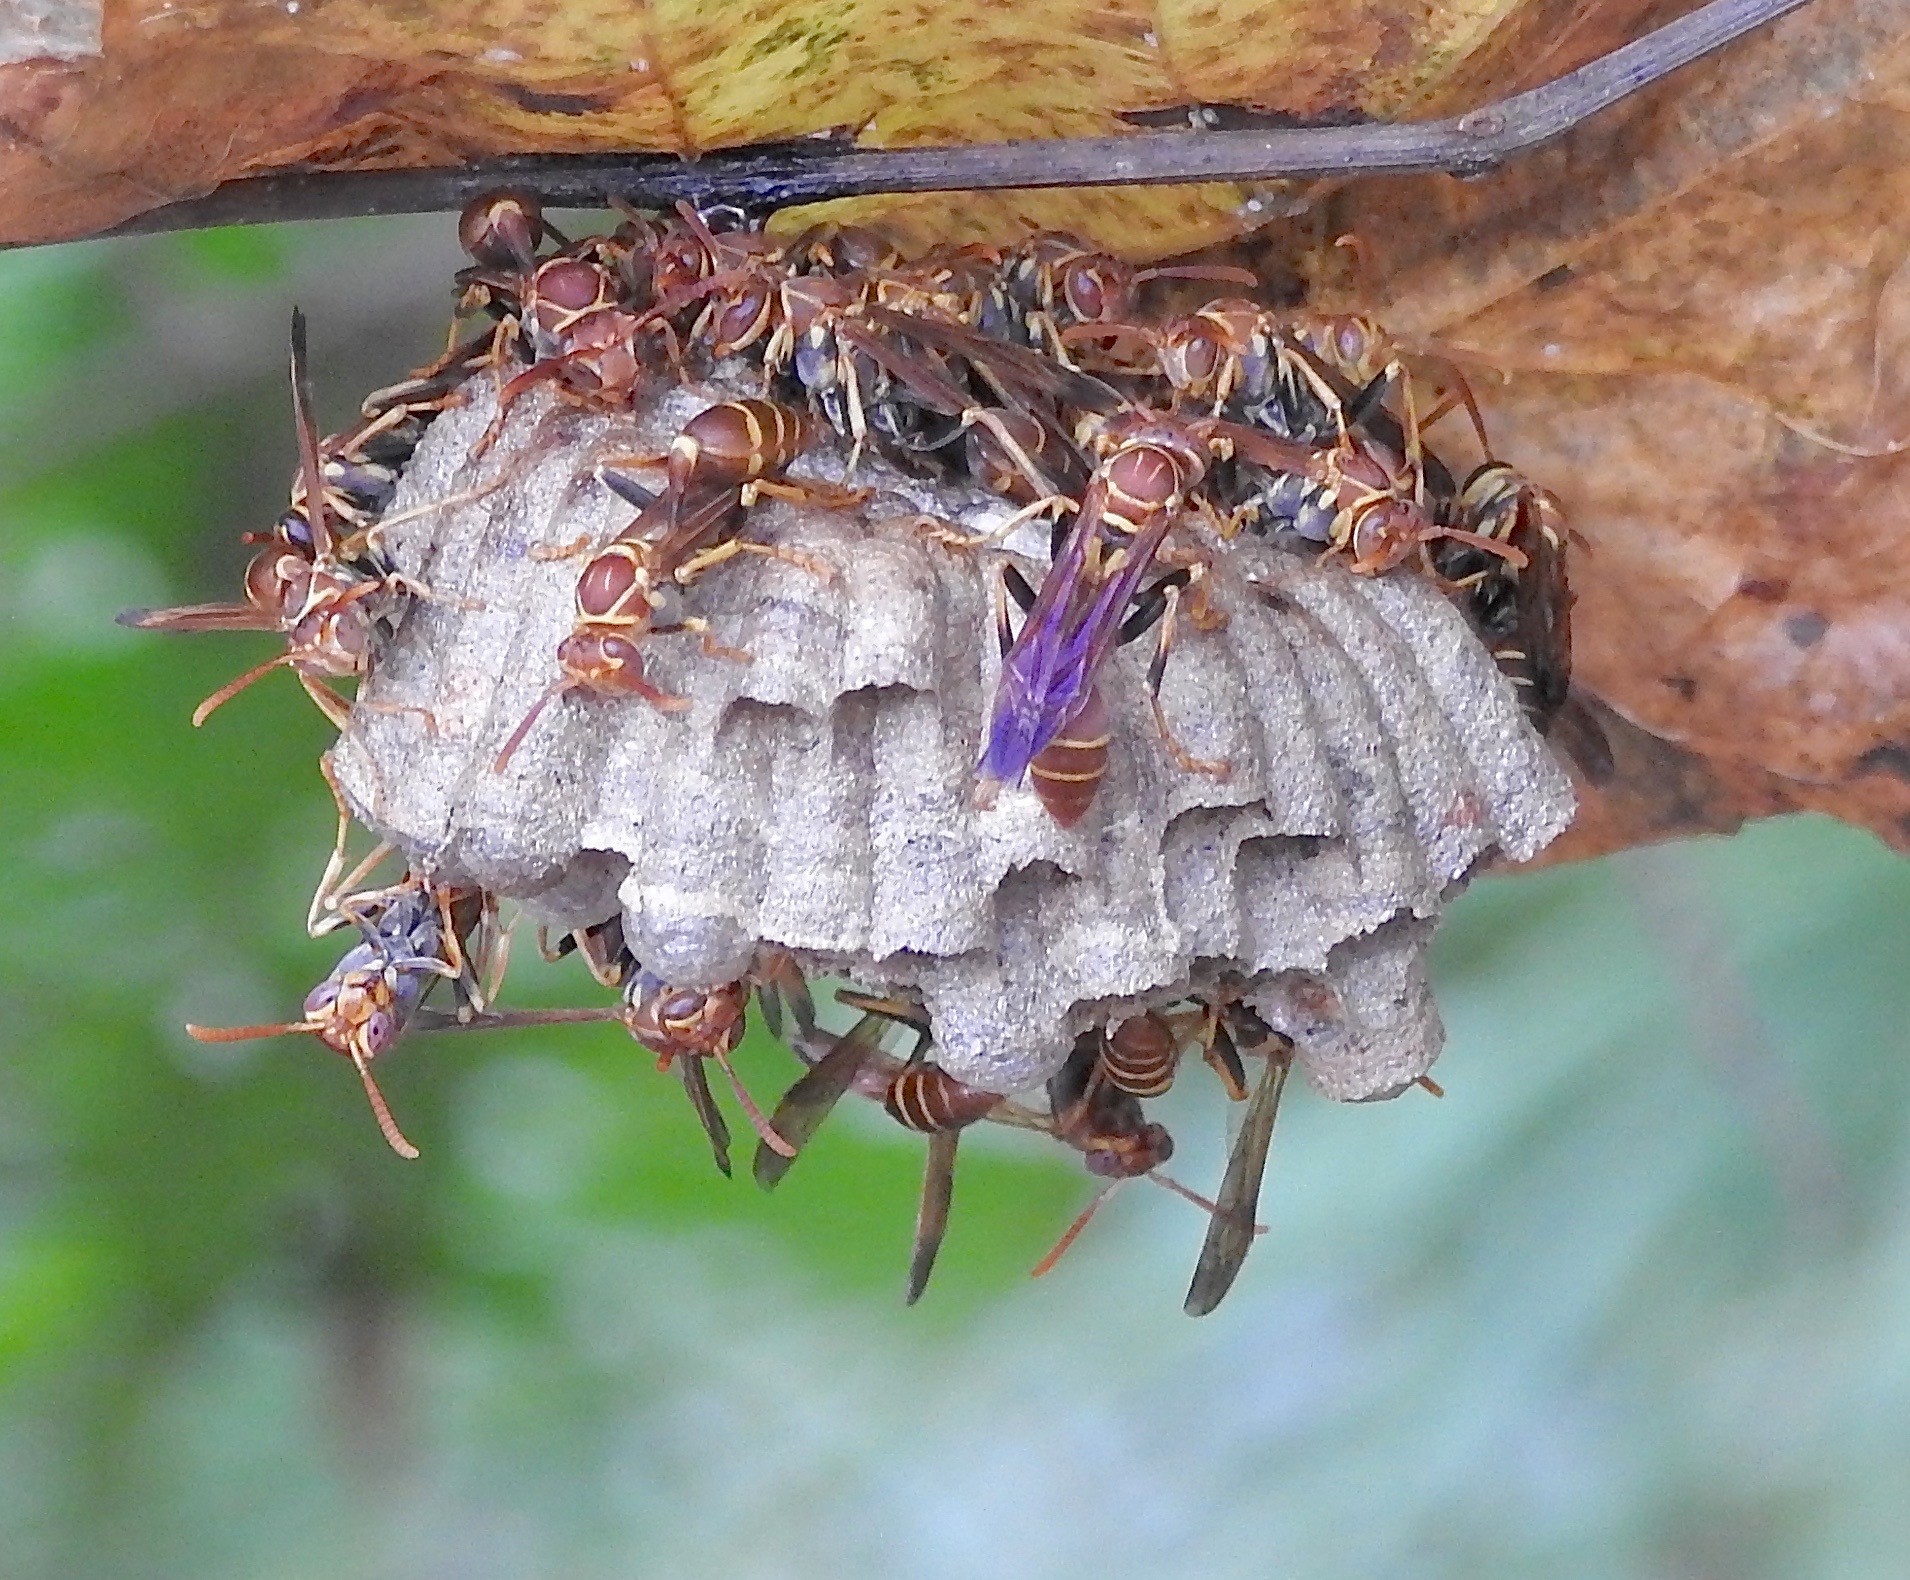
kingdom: Animalia
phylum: Arthropoda
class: Insecta
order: Hymenoptera
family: Vespidae
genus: Mischocyttarus
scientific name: Mischocyttarus mexicanus
